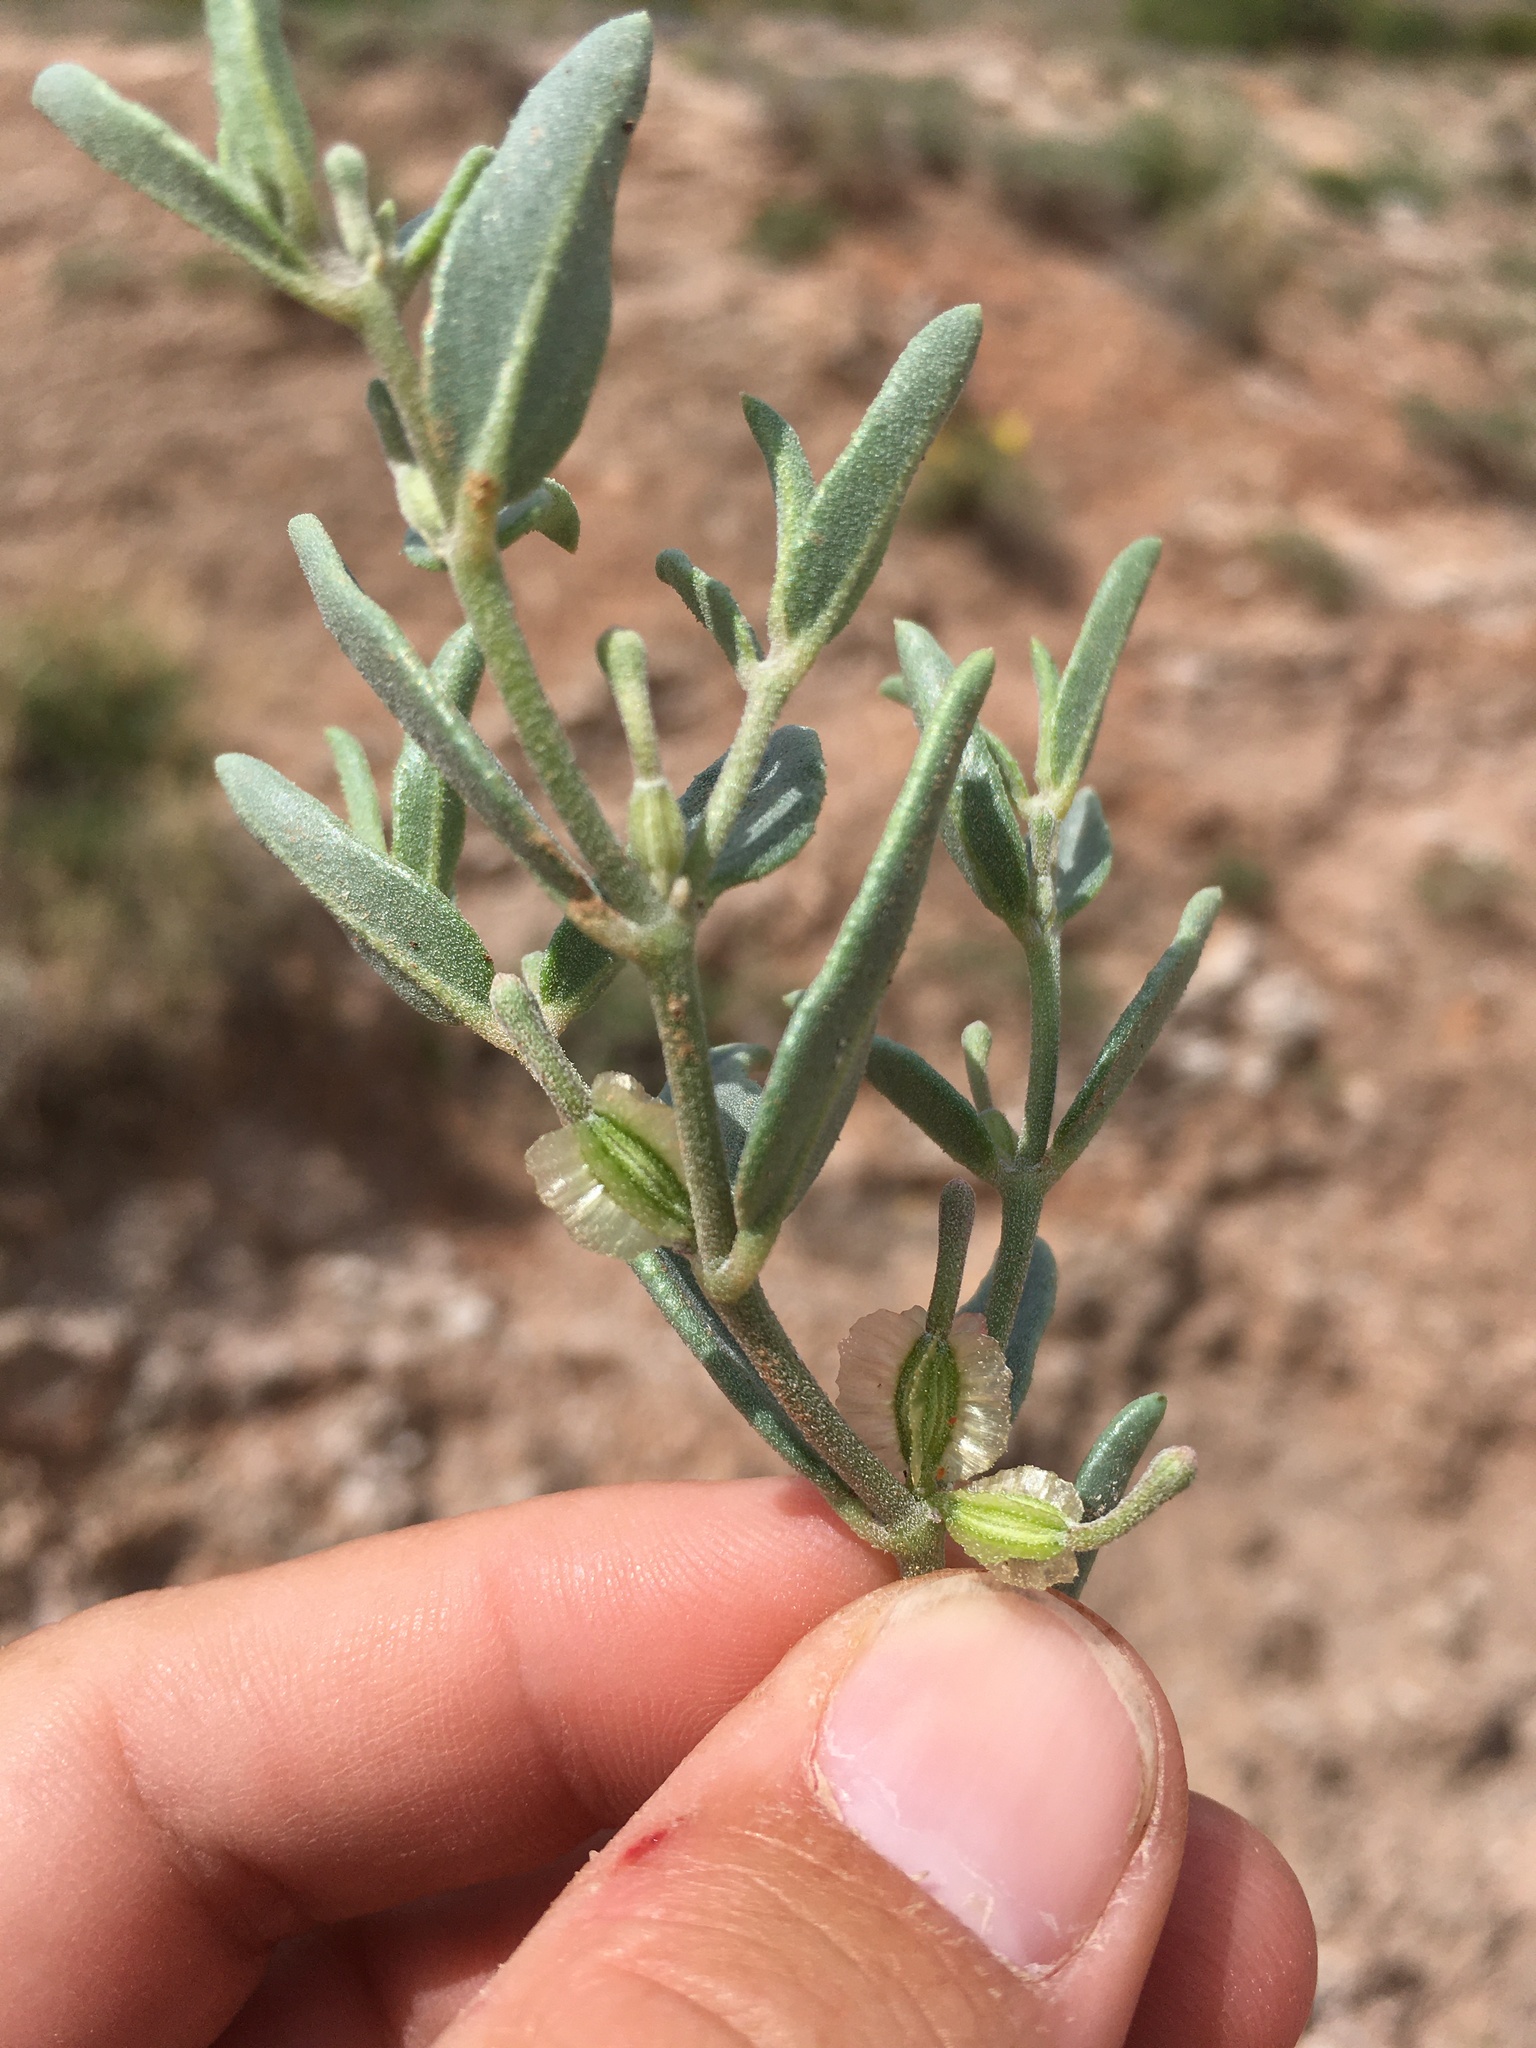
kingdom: Plantae
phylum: Tracheophyta
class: Magnoliopsida
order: Caryophyllales
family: Nyctaginaceae
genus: Acleisanthes
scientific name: Acleisanthes lanceolata
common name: Gypsum moonpod
